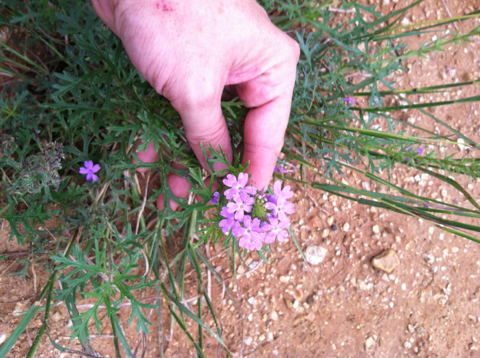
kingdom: Plantae
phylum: Tracheophyta
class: Magnoliopsida
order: Lamiales
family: Verbenaceae
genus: Verbena
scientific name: Verbena bipinnatifida
